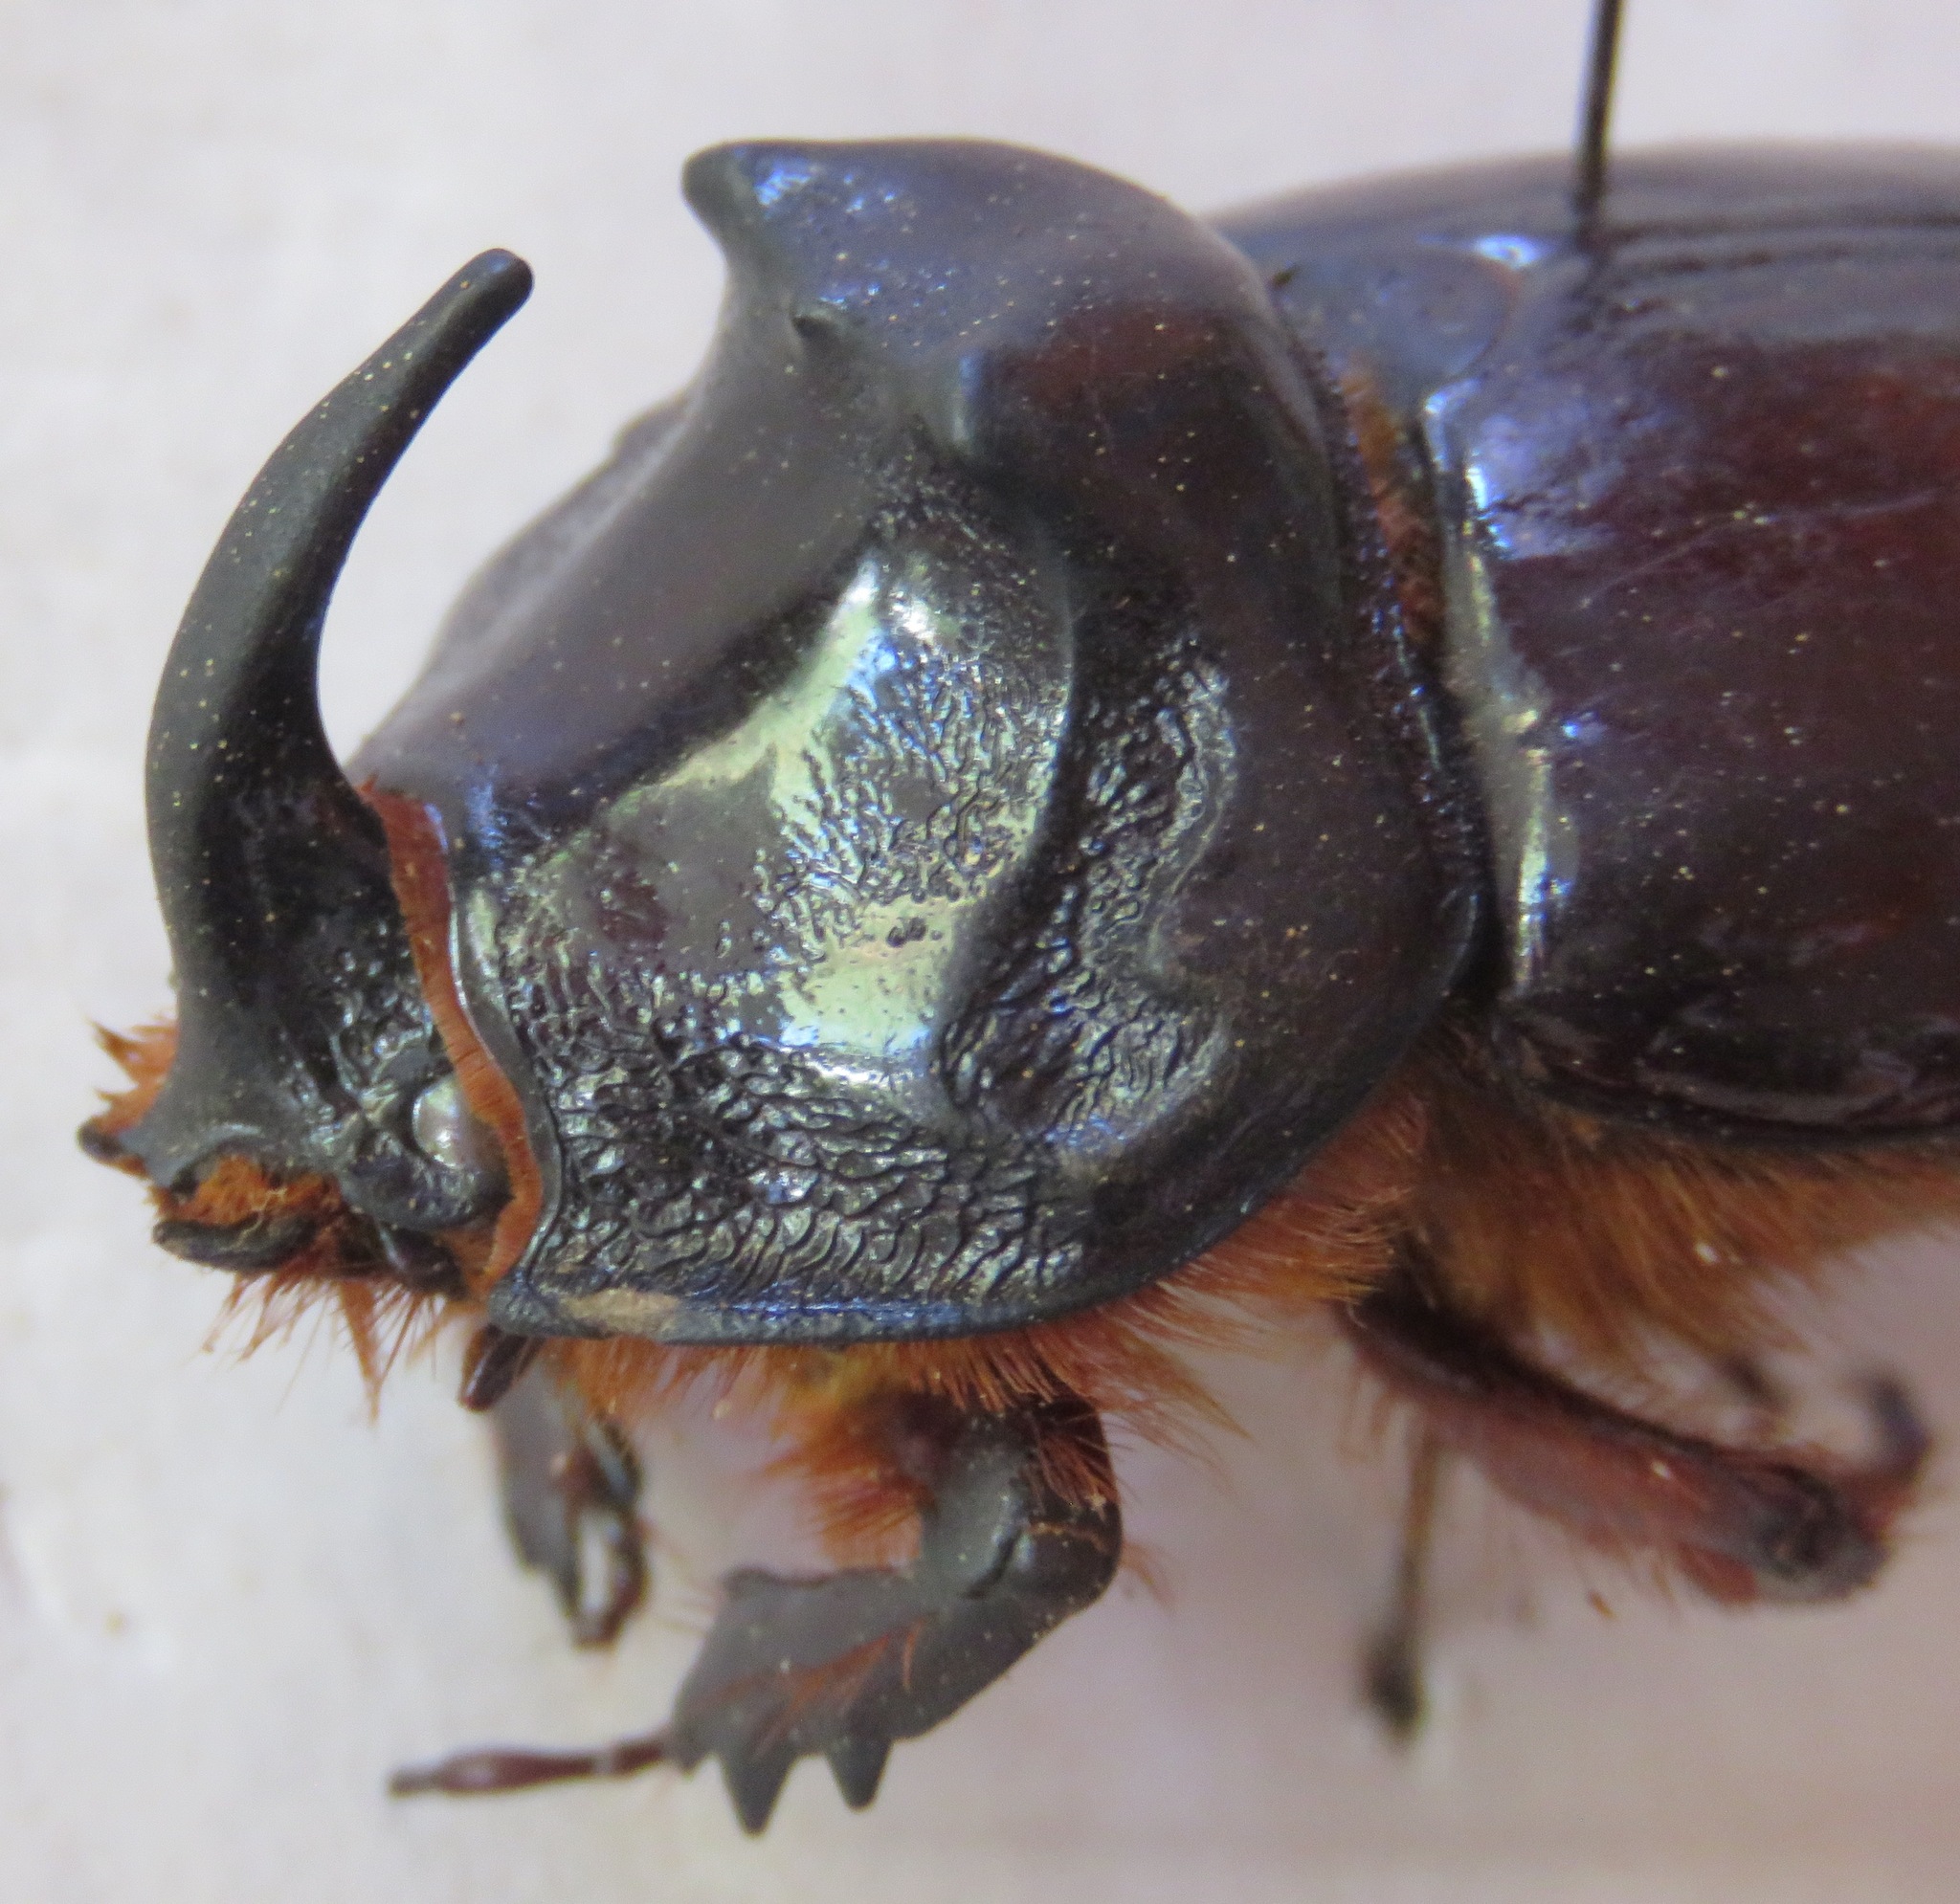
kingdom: Animalia
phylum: Arthropoda
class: Insecta
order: Coleoptera
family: Scarabaeidae
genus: Oryctes
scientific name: Oryctes nasicornis
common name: European rhinoceros beetle
